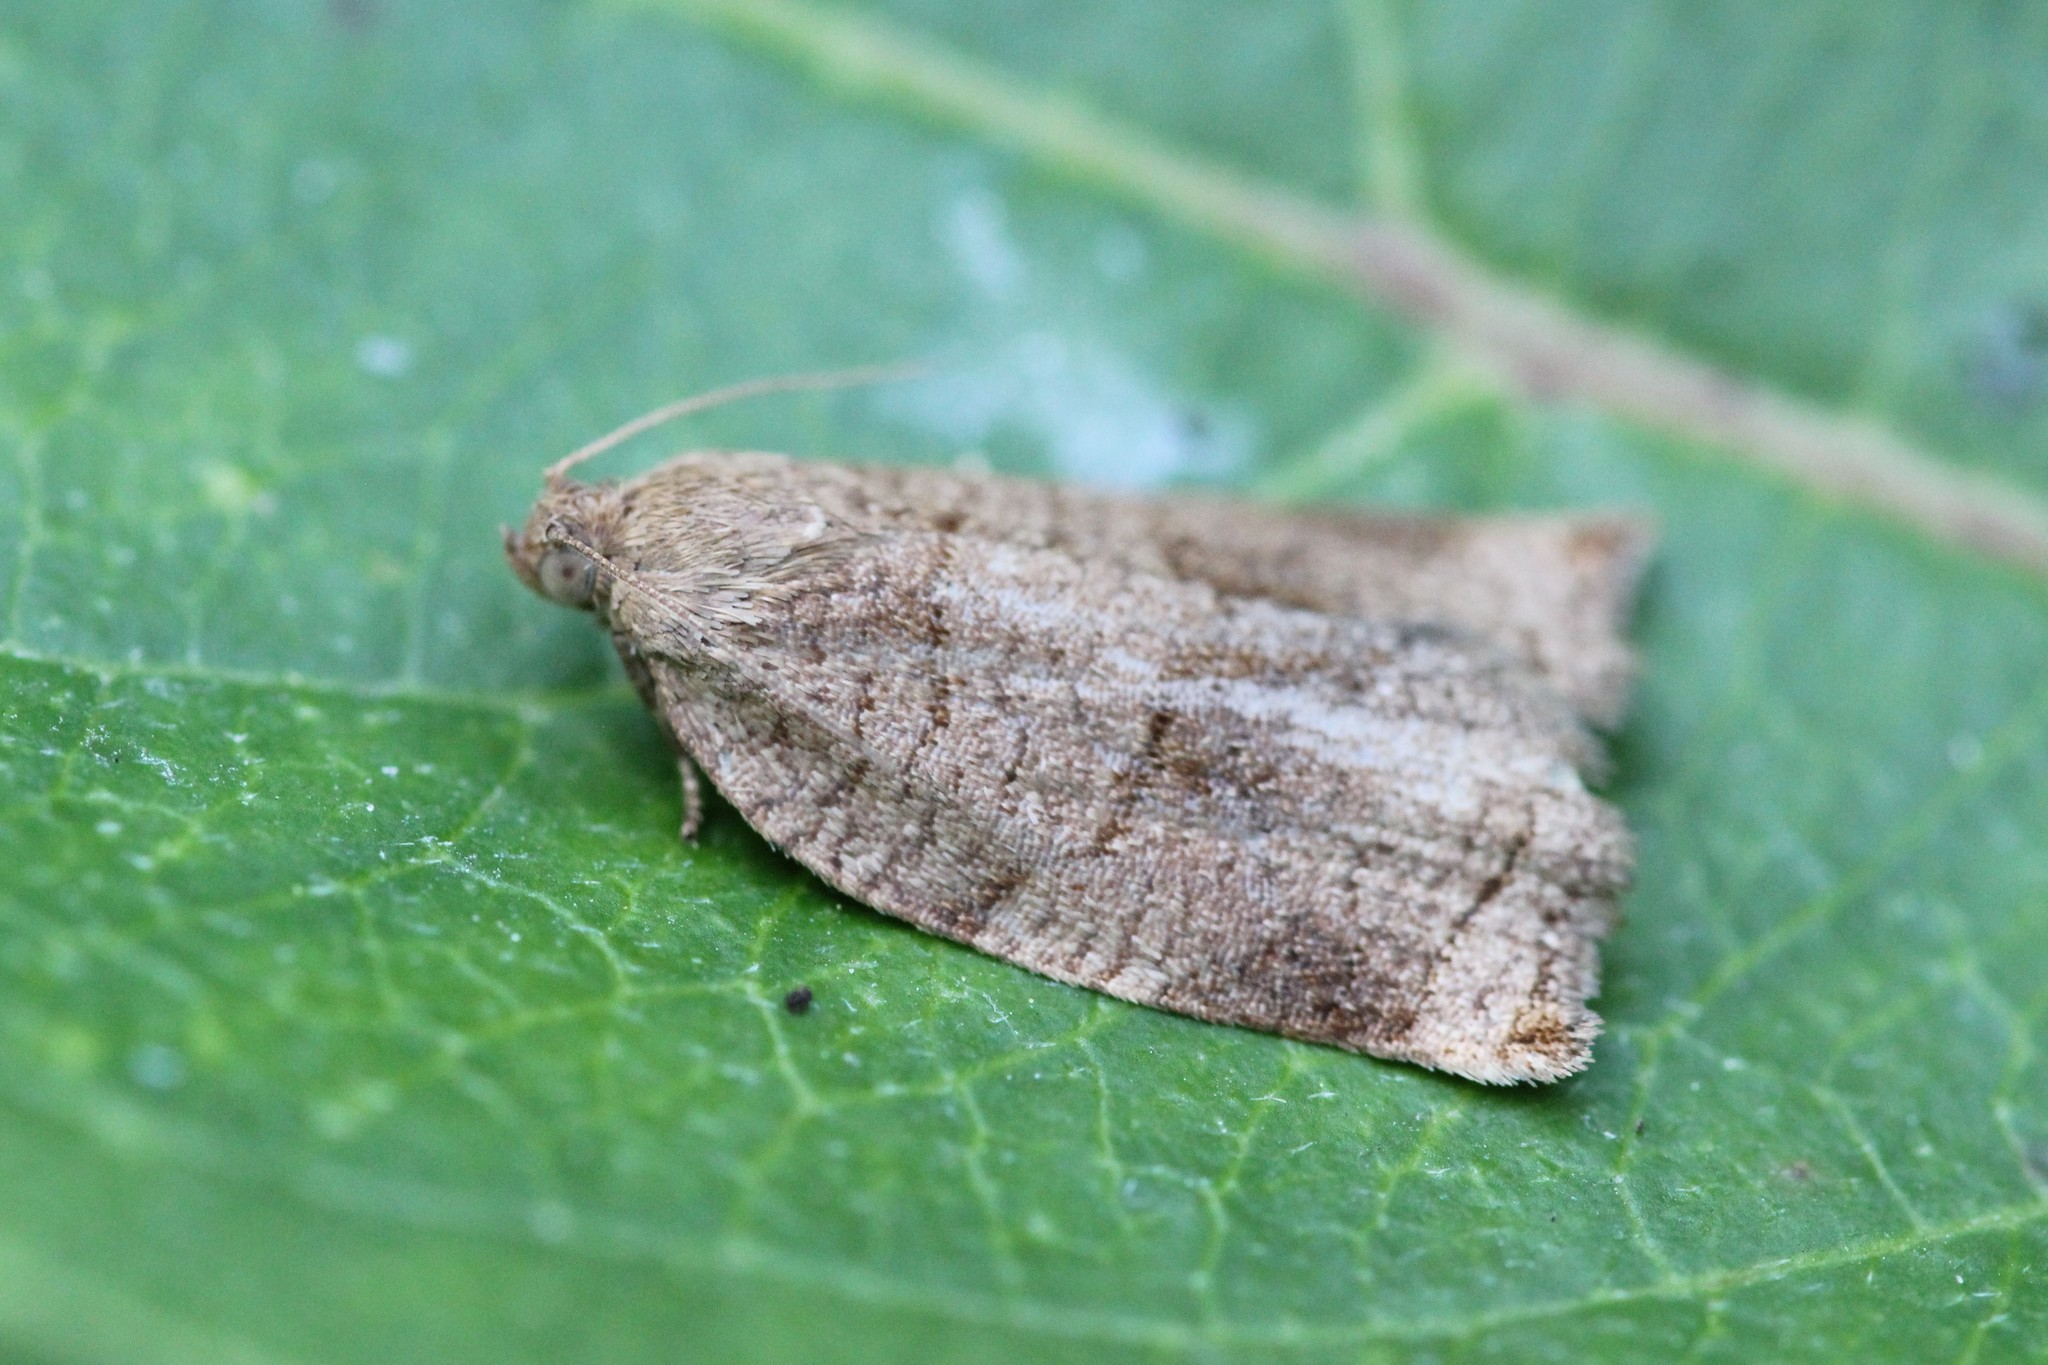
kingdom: Animalia
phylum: Arthropoda
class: Insecta
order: Lepidoptera
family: Tortricidae
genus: Choristoneura
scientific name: Choristoneura rosaceana
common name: Oblique-banded leafroller moth
